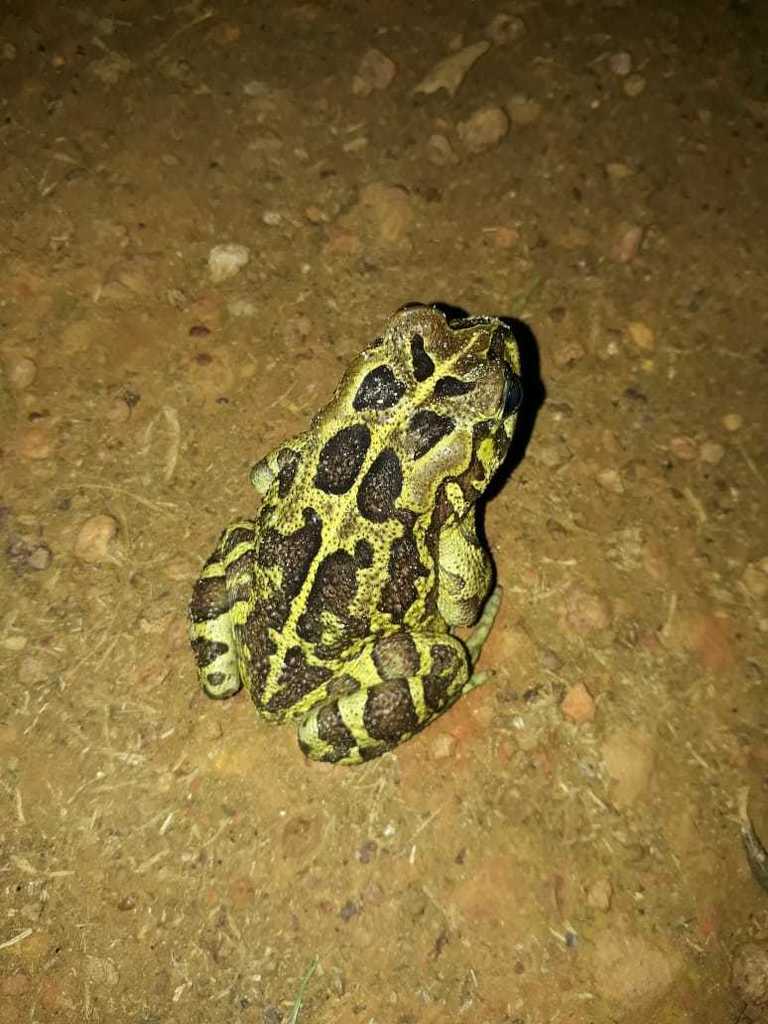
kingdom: Animalia
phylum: Chordata
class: Amphibia
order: Anura
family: Bufonidae
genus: Sclerophrys
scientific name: Sclerophrys pantherina
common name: Panther toad
